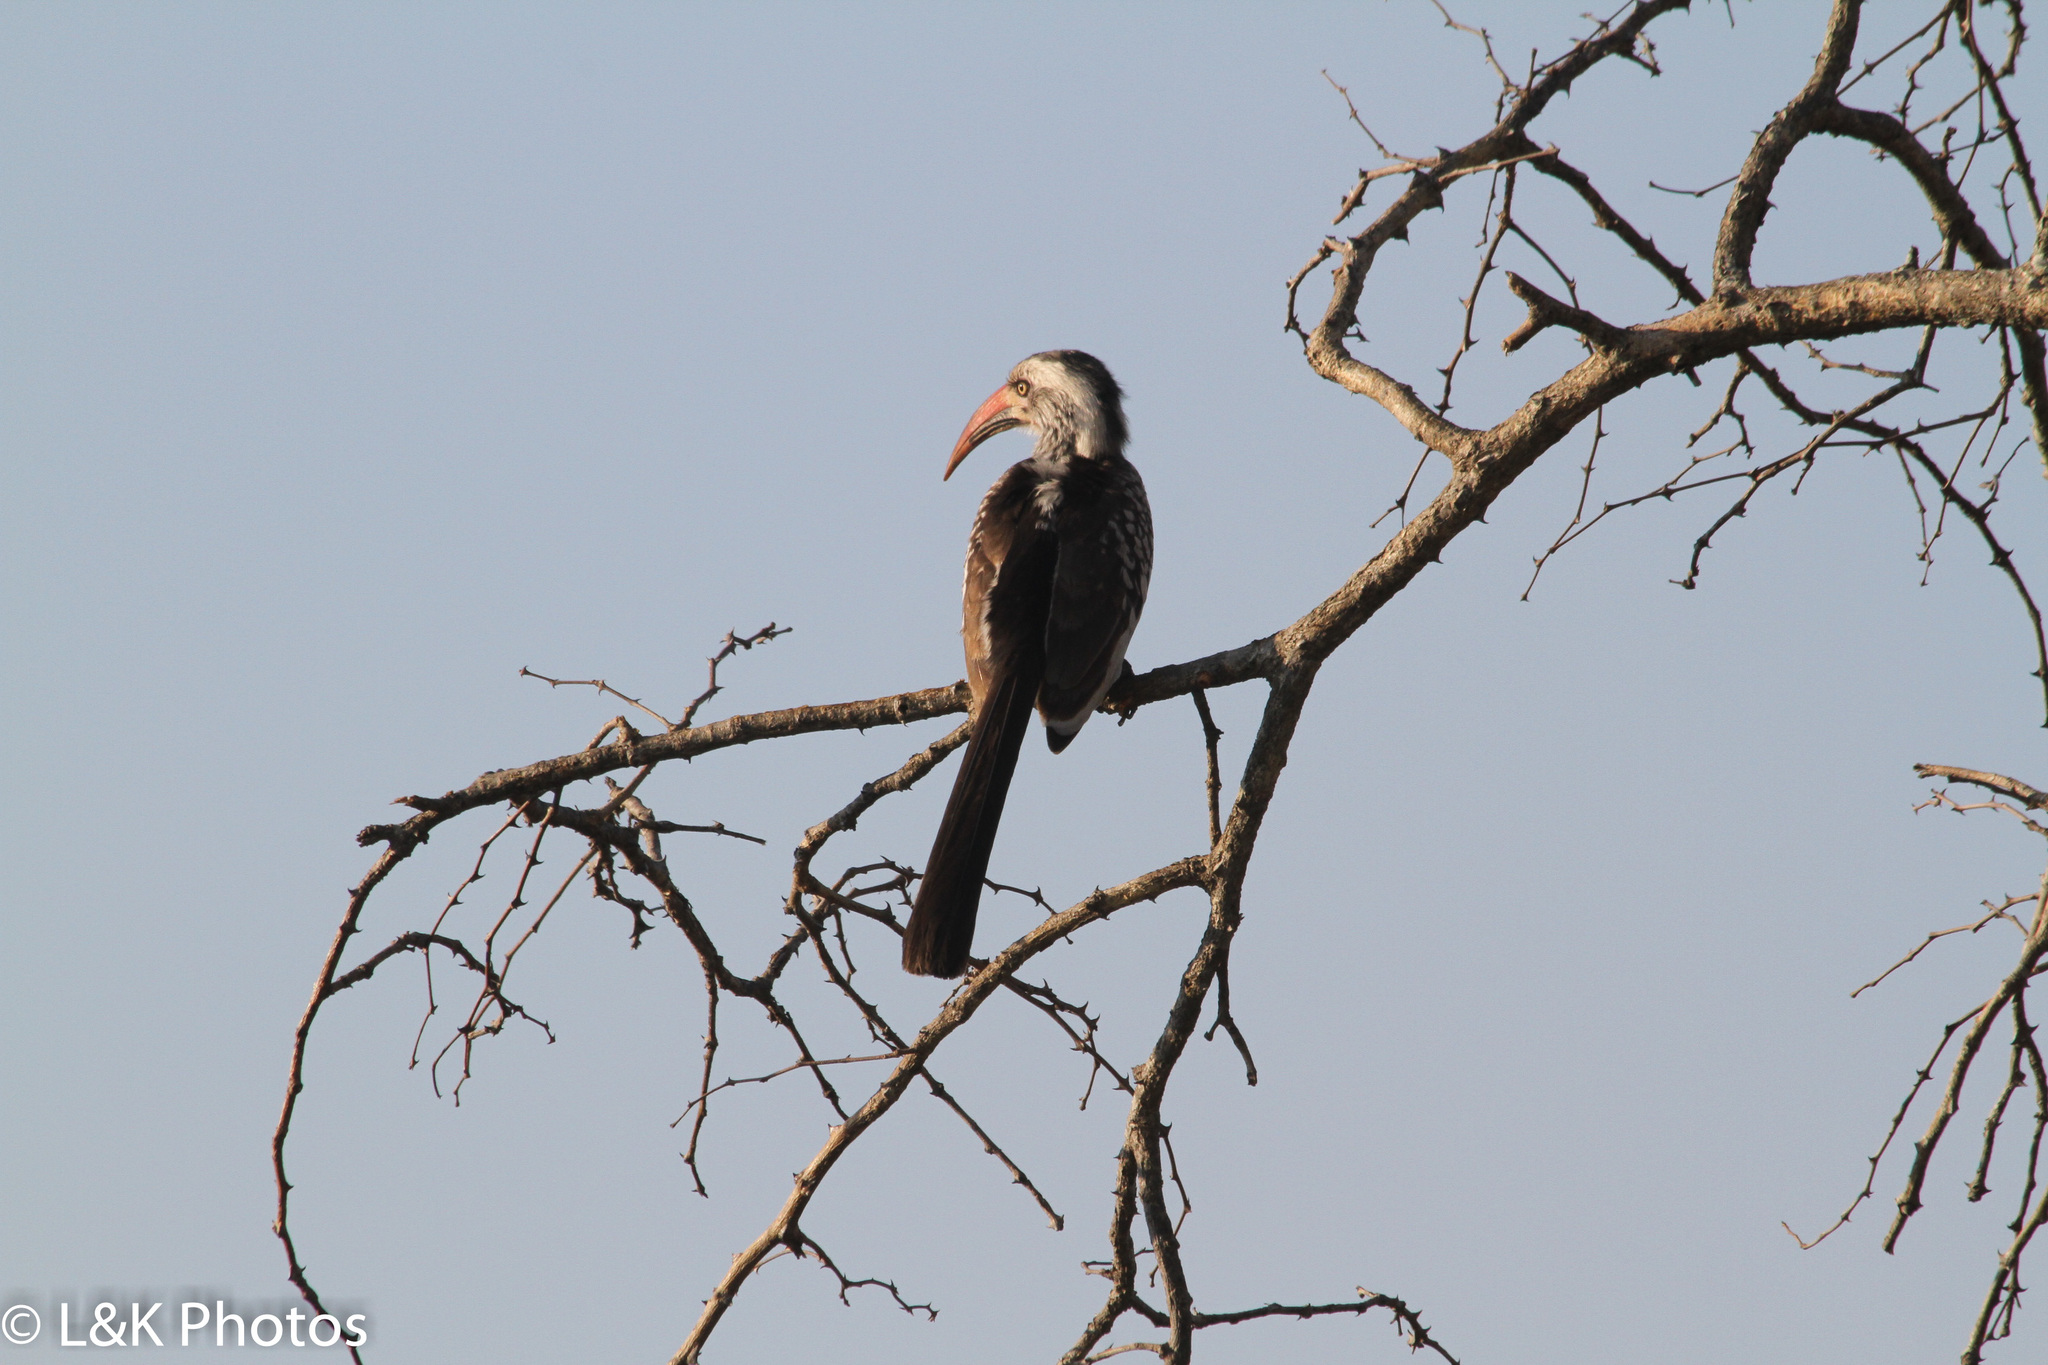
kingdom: Animalia
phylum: Chordata
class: Aves
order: Bucerotiformes
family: Bucerotidae
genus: Tockus
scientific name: Tockus rufirostris
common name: Southern red-billed hornbill
